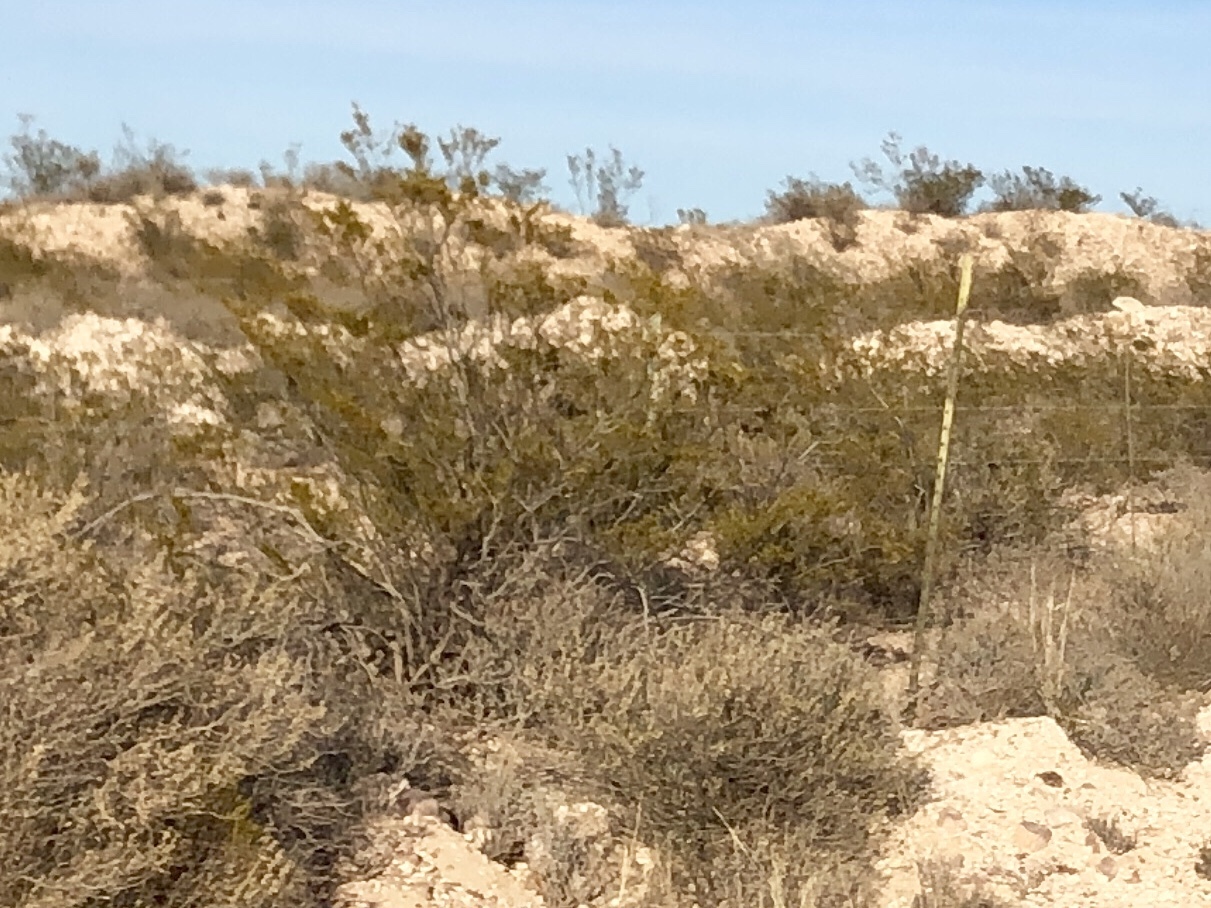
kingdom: Plantae
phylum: Tracheophyta
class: Magnoliopsida
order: Zygophyllales
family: Zygophyllaceae
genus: Larrea
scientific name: Larrea tridentata
